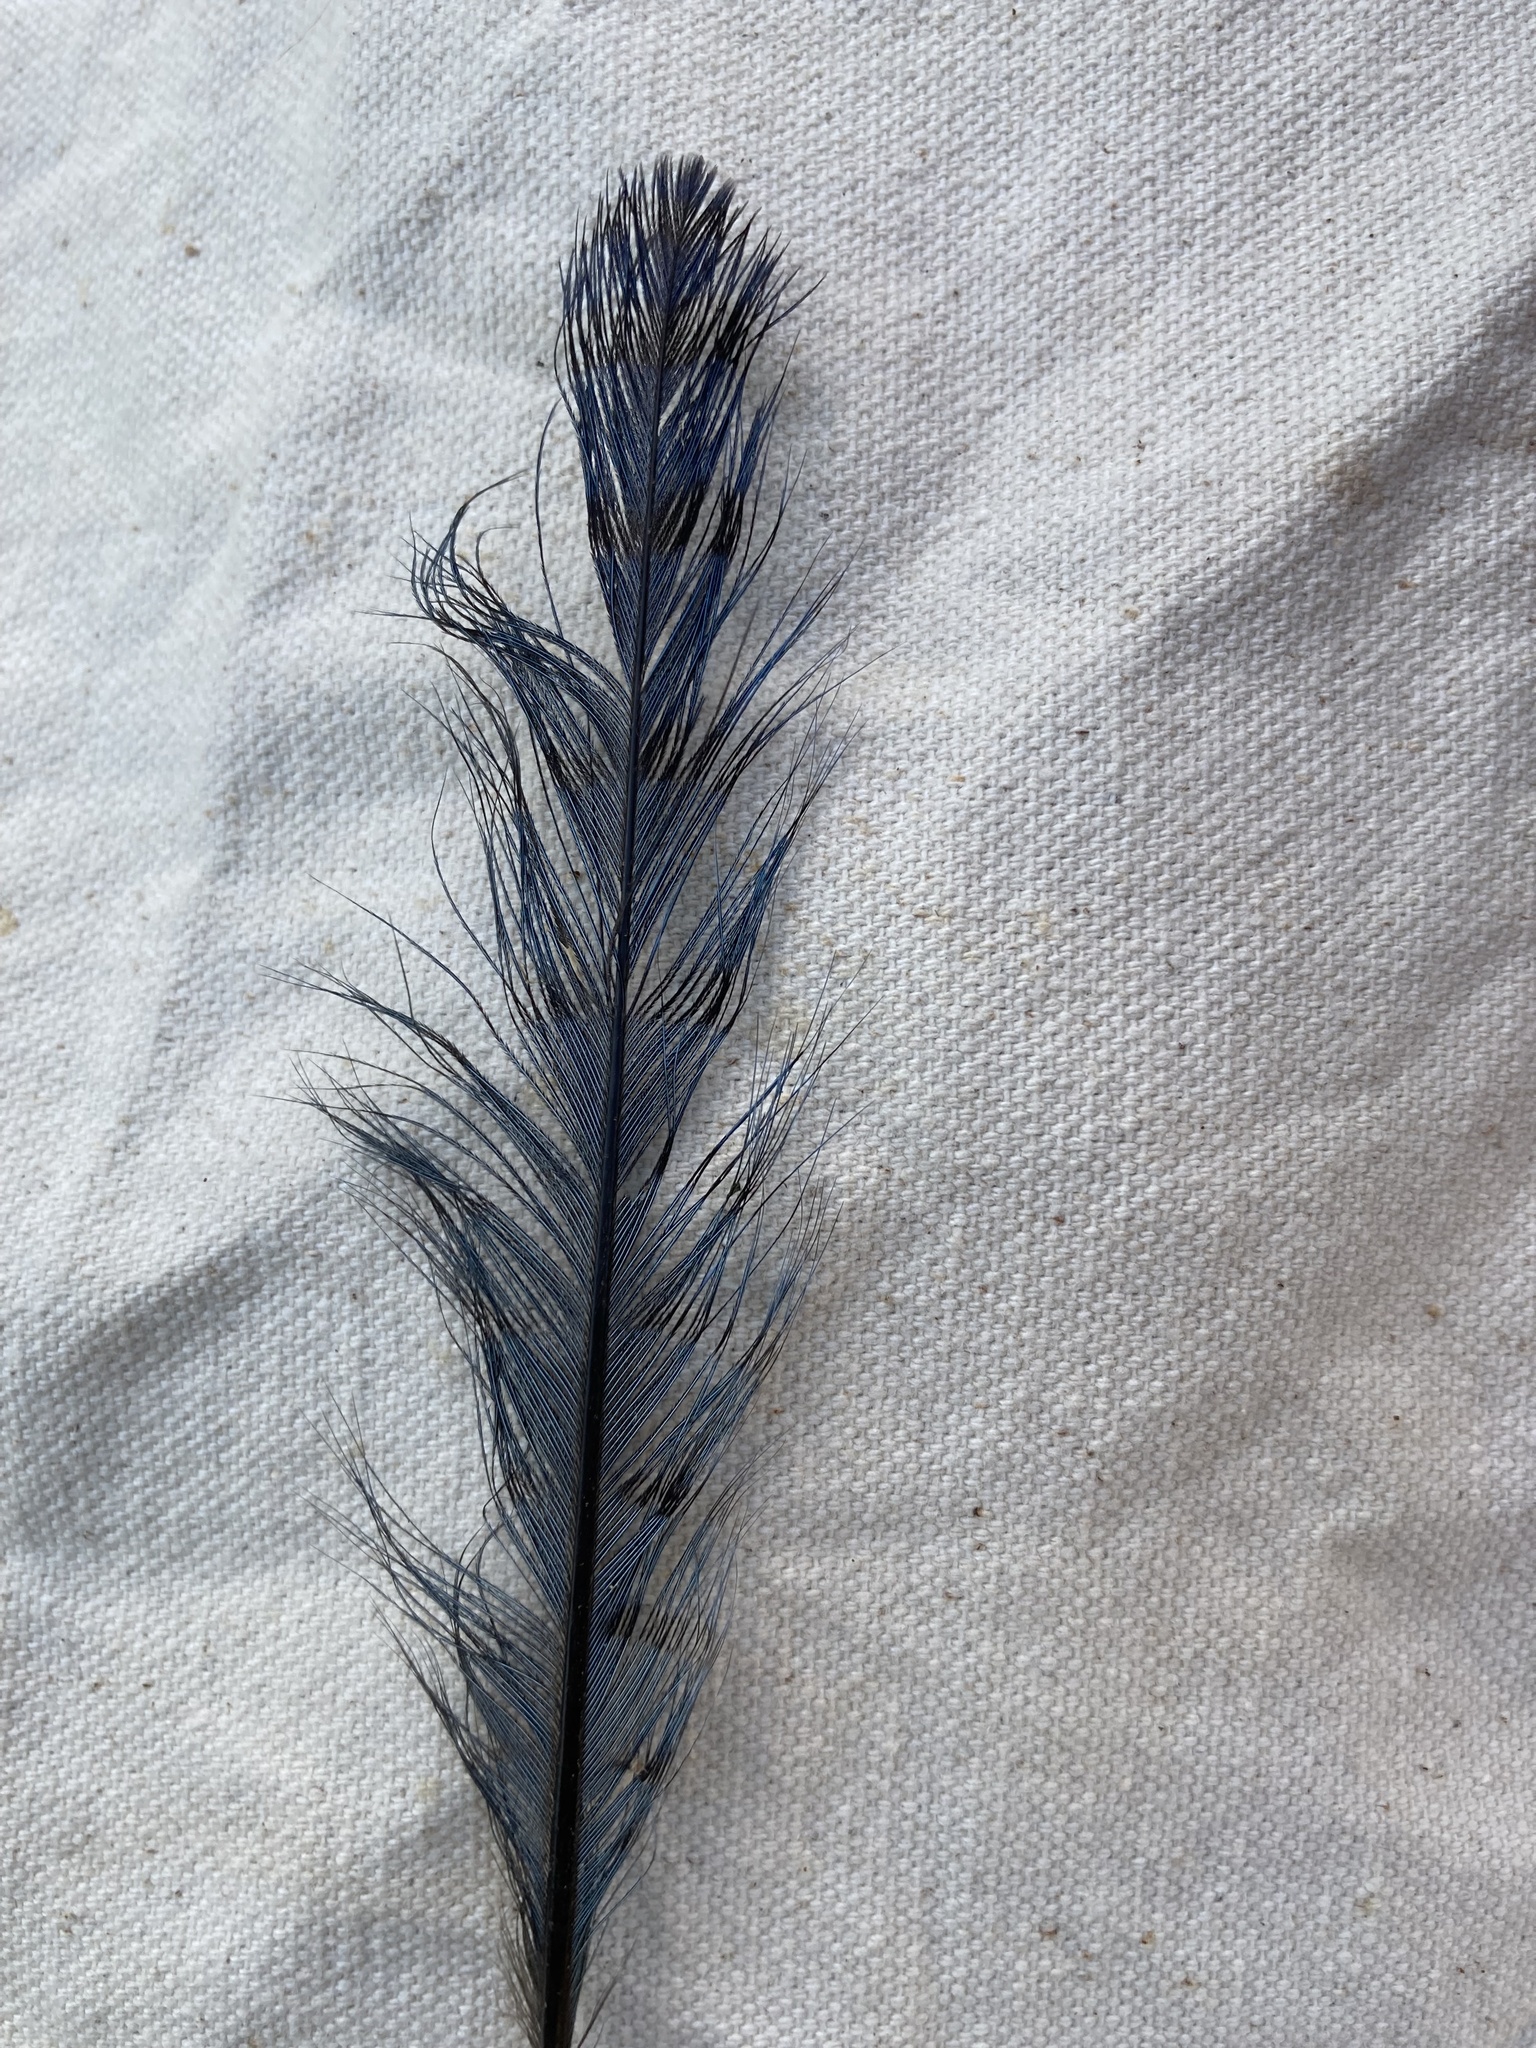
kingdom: Animalia
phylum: Chordata
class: Aves
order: Passeriformes
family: Corvidae
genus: Cyanocitta
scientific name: Cyanocitta cristata
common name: Blue jay
